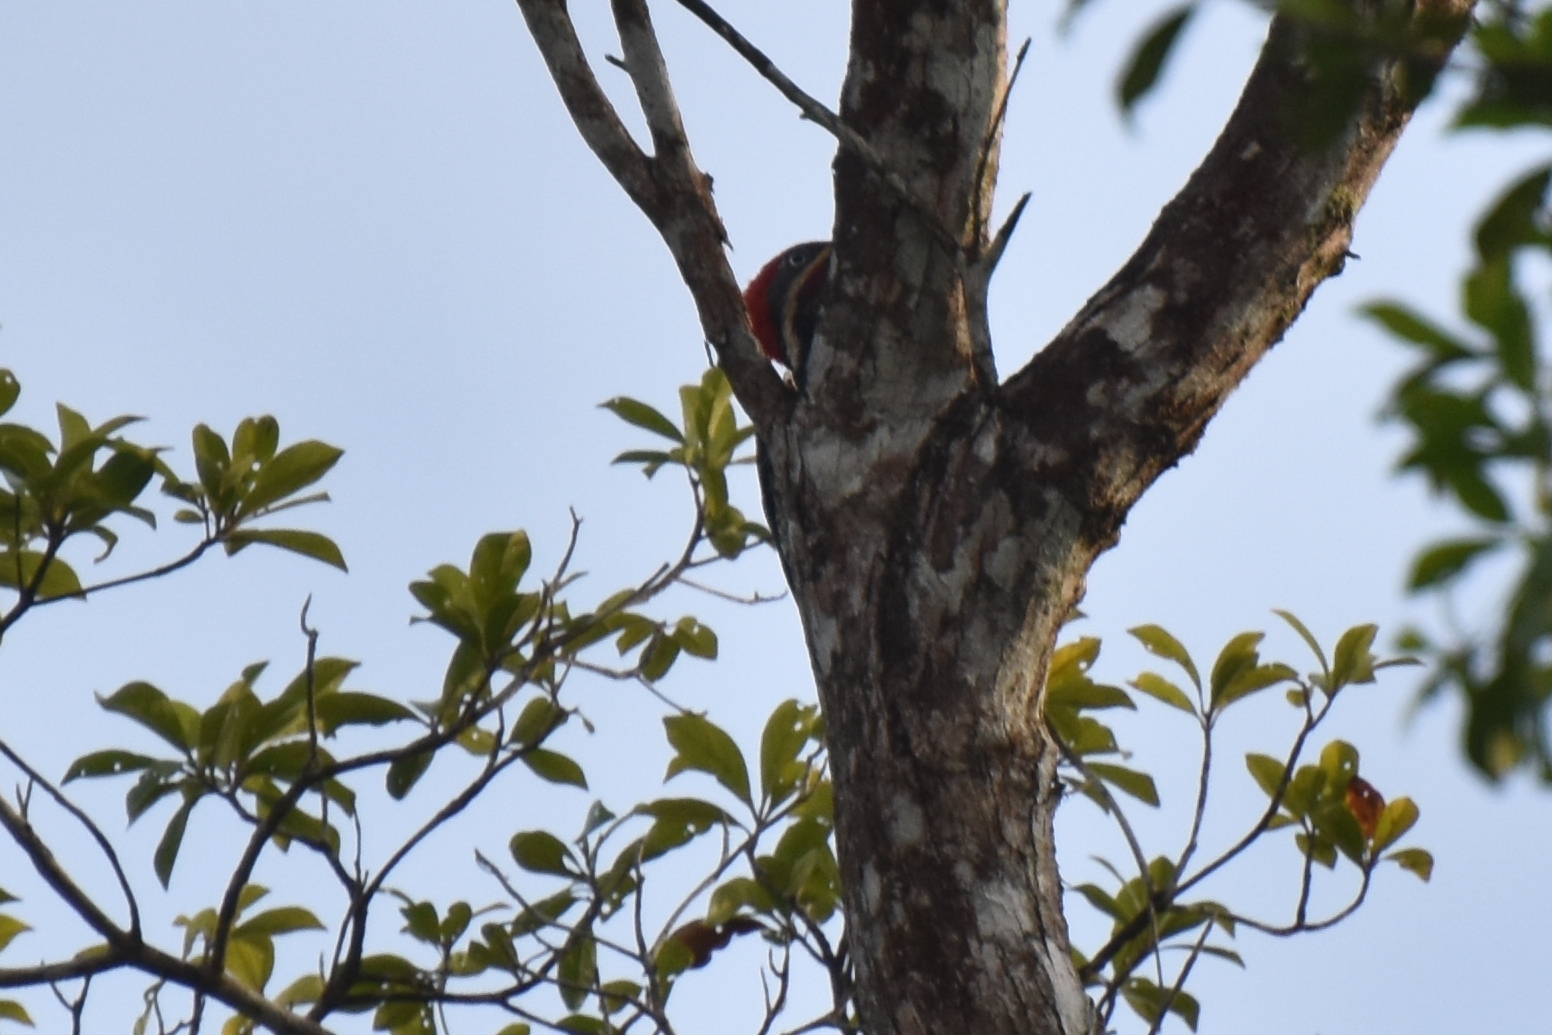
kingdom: Animalia
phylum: Chordata
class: Aves
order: Piciformes
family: Picidae
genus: Dryocopus
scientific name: Dryocopus lineatus
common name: Lineated woodpecker
